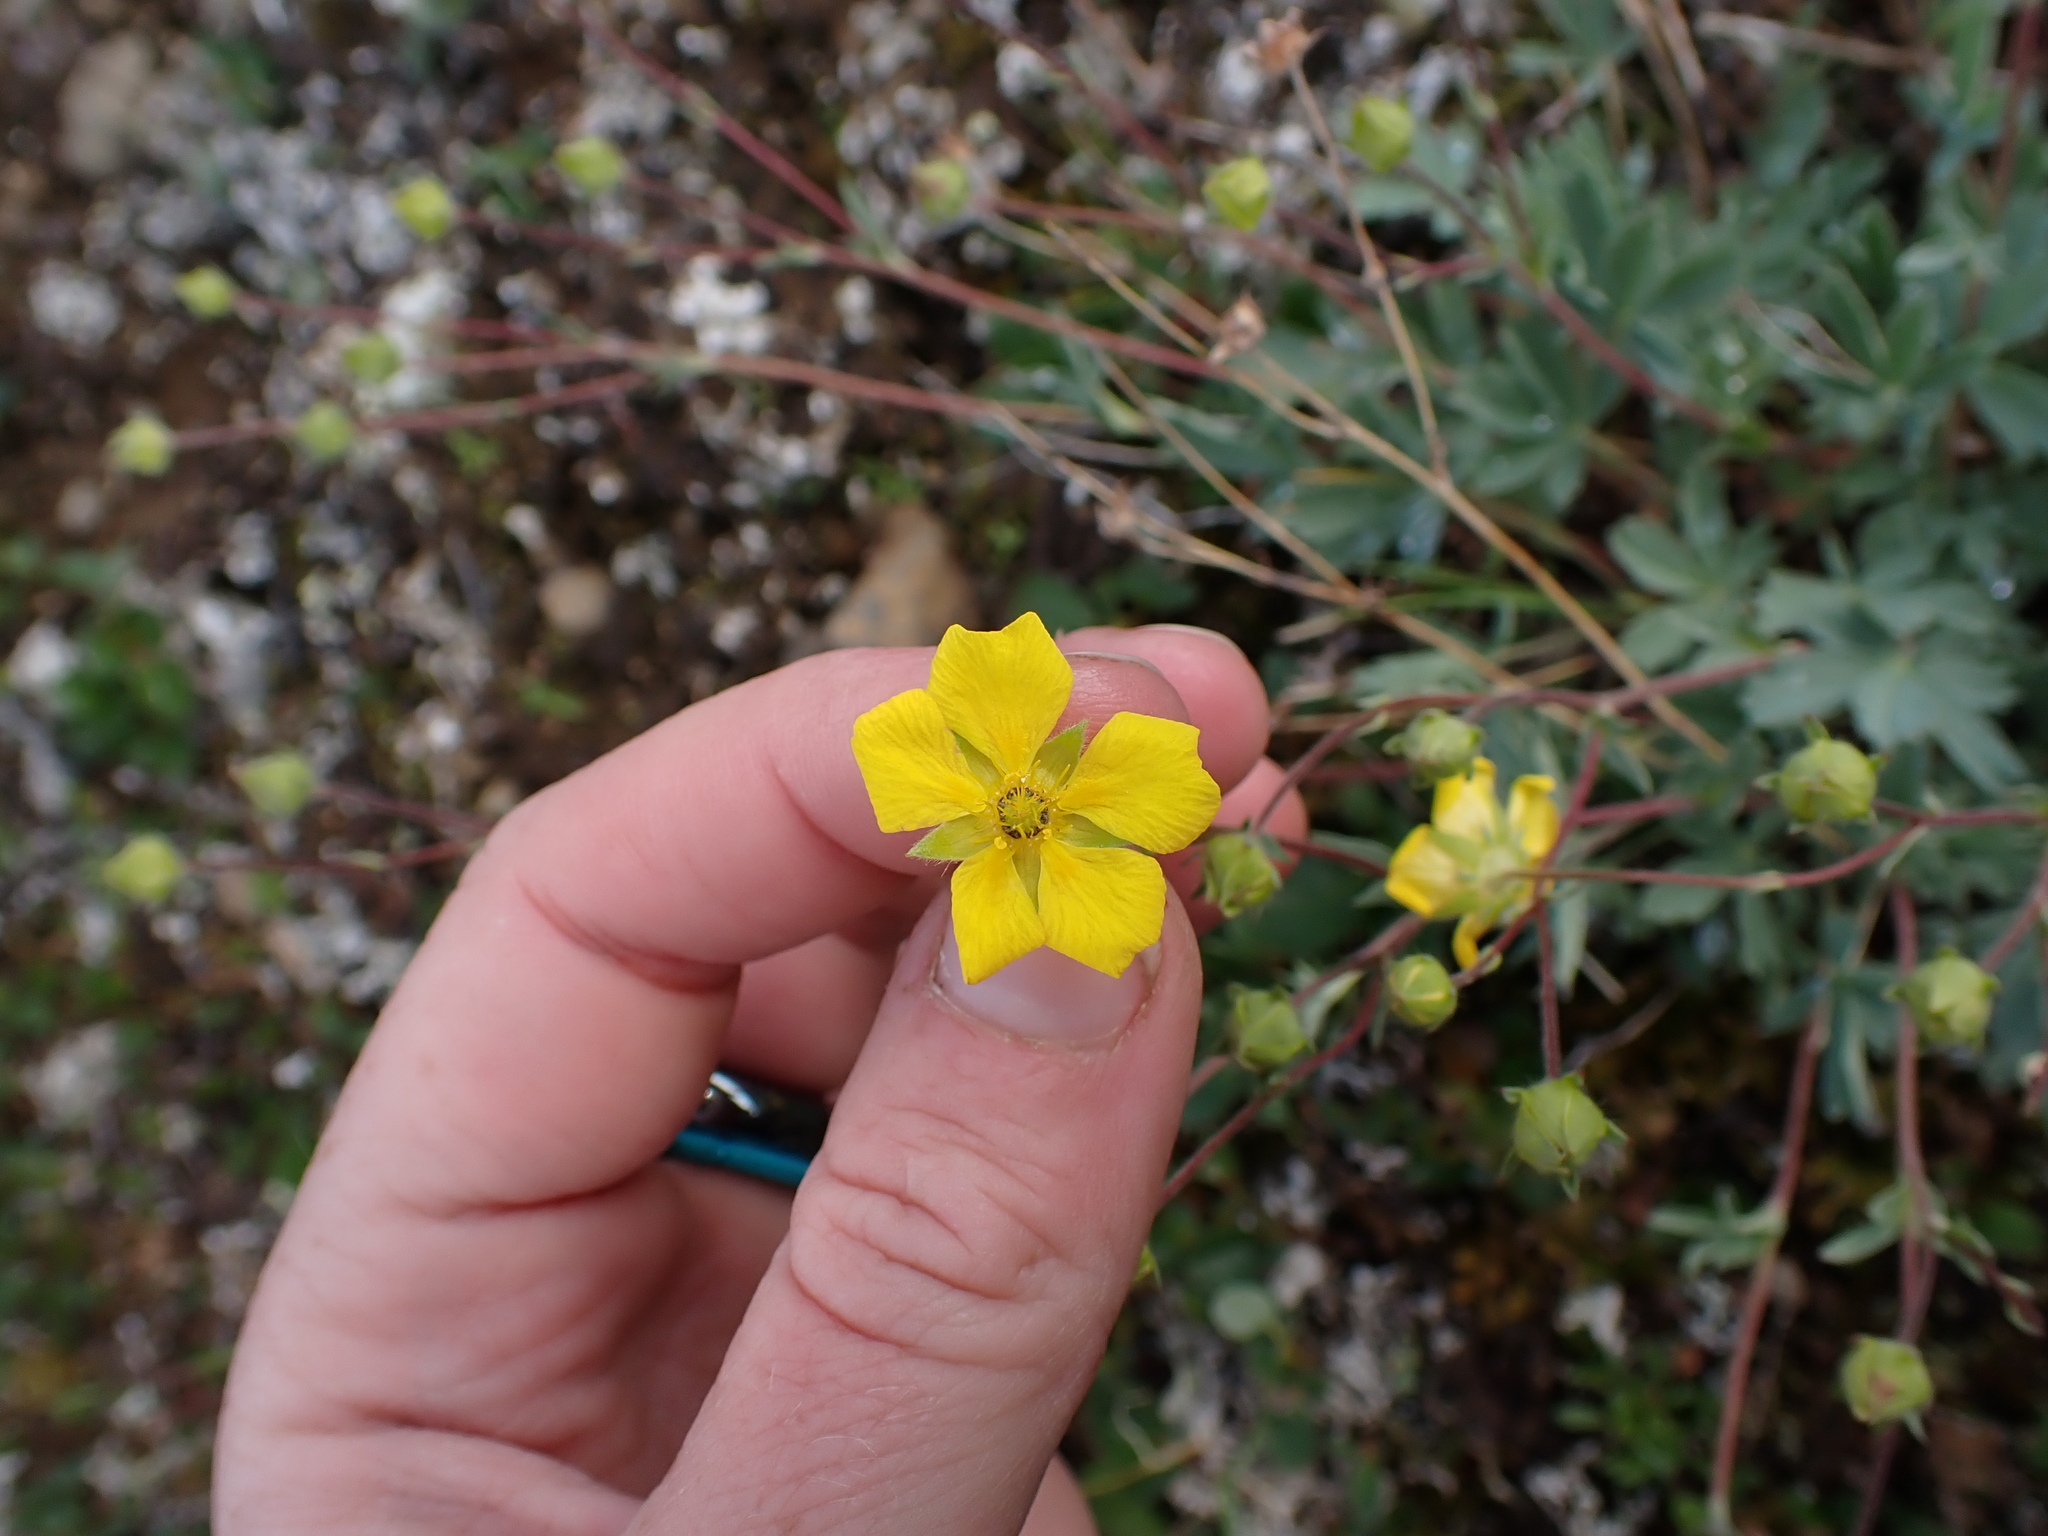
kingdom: Plantae
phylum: Tracheophyta
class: Magnoliopsida
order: Rosales
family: Rosaceae
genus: Potentilla
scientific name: Potentilla glaucophylla
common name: Blue-leaved cinquefoil
